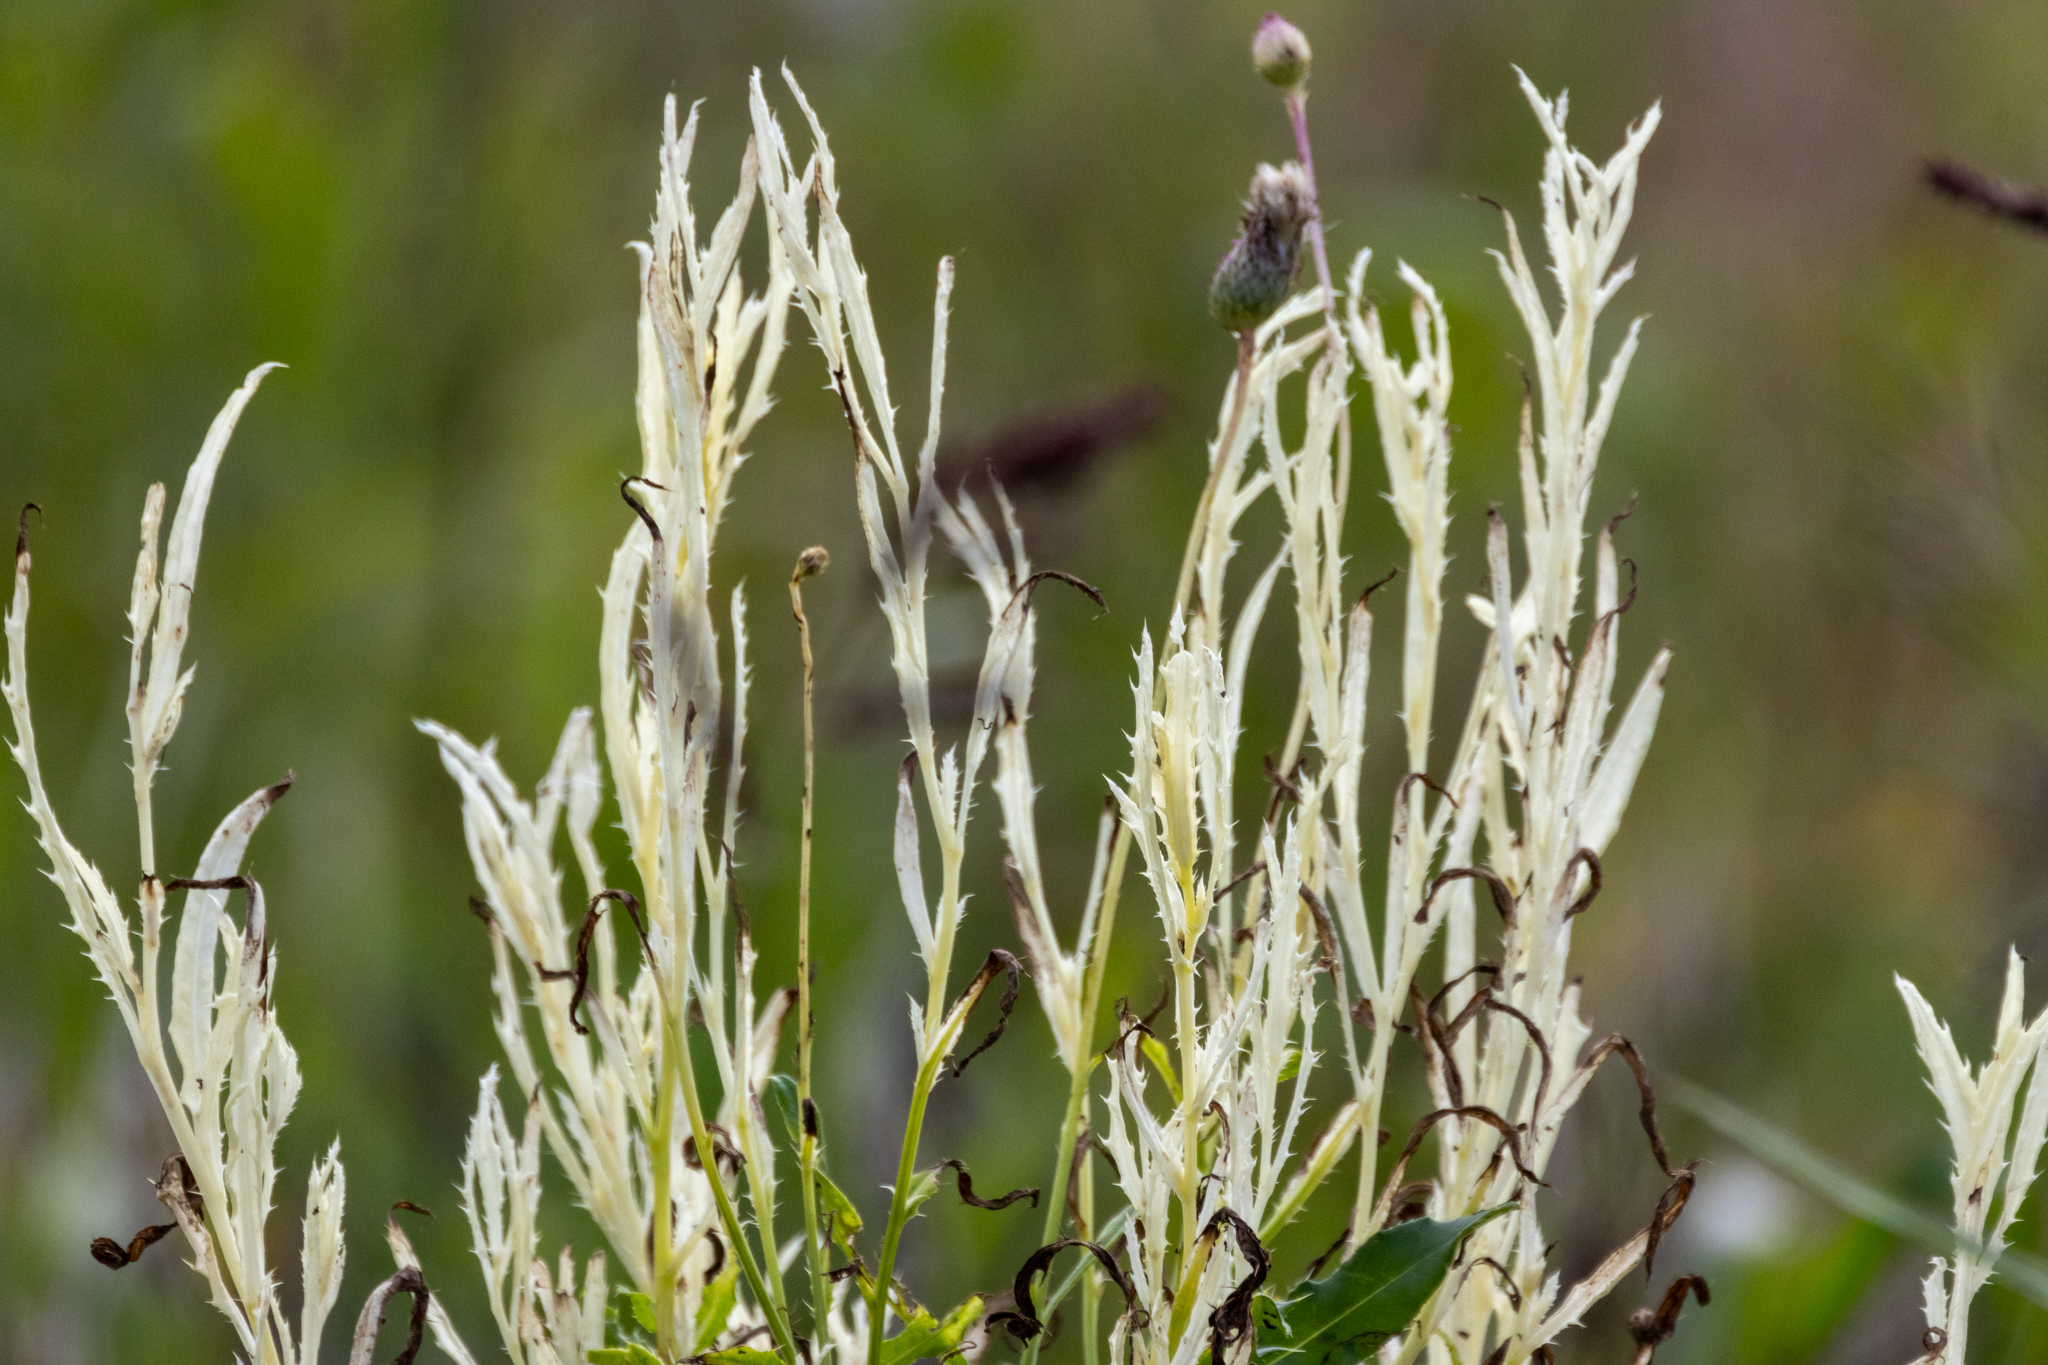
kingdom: Bacteria
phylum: Proteobacteria
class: Gammaproteobacteria
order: Pseudomonadales
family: Pseudomonadaceae
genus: Pseudomonas
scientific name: Pseudomonas syringae
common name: Bacterial speck
